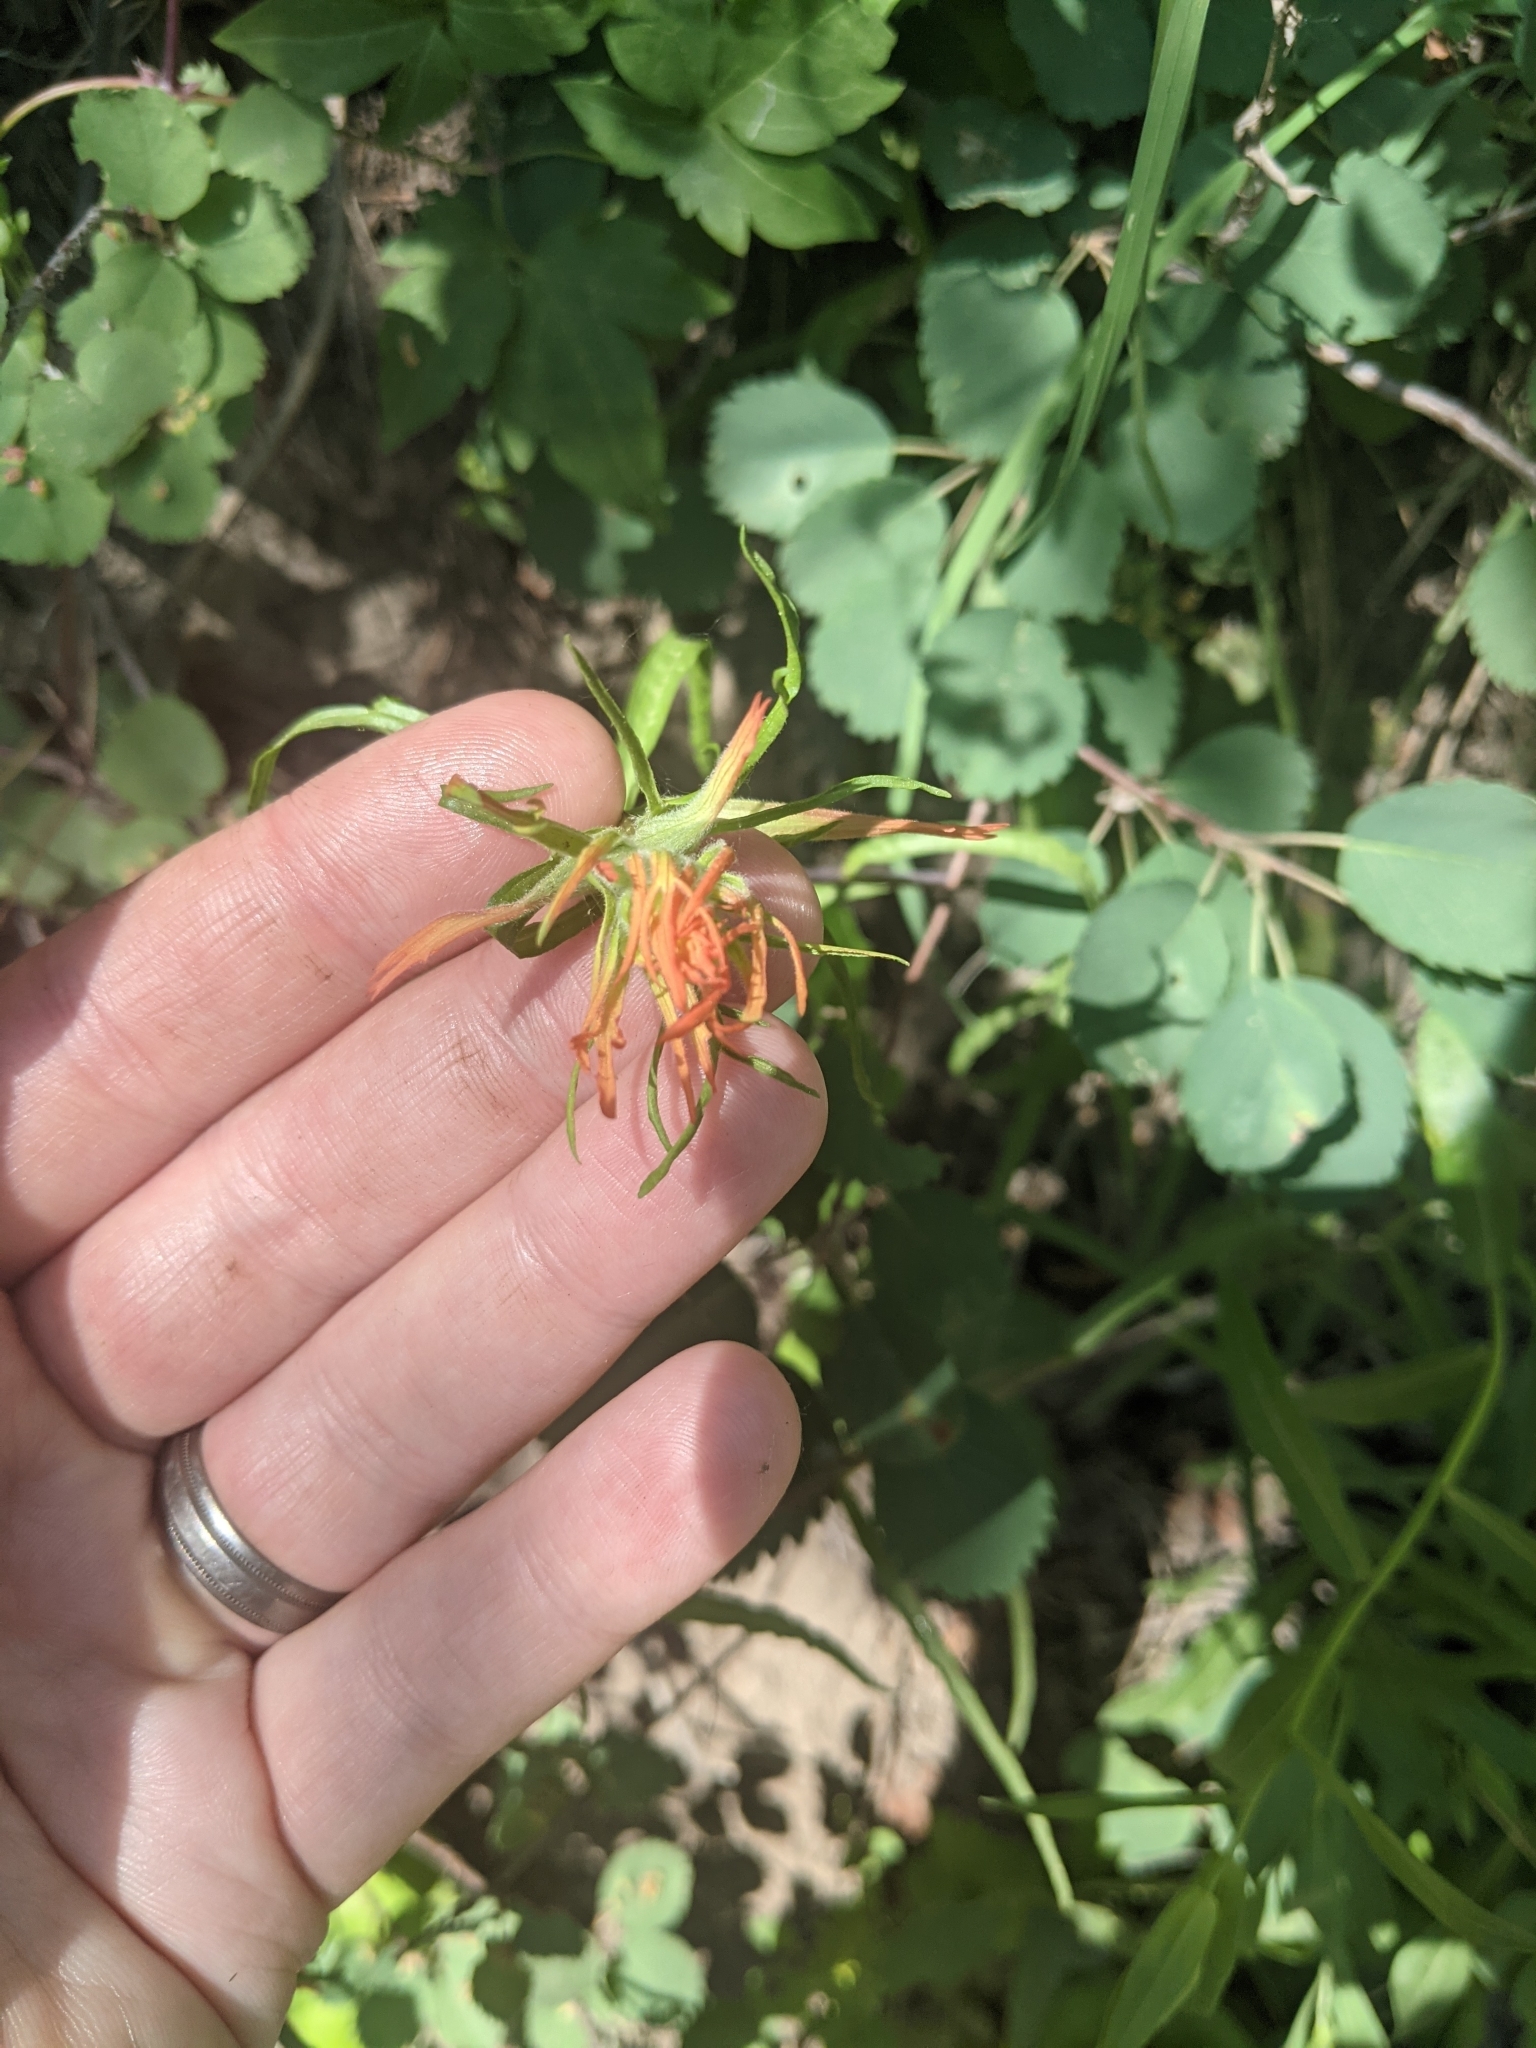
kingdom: Plantae
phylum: Tracheophyta
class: Magnoliopsida
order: Lamiales
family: Orobanchaceae
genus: Castilleja
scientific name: Castilleja linariifolia
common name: Wyoming paintbrush
